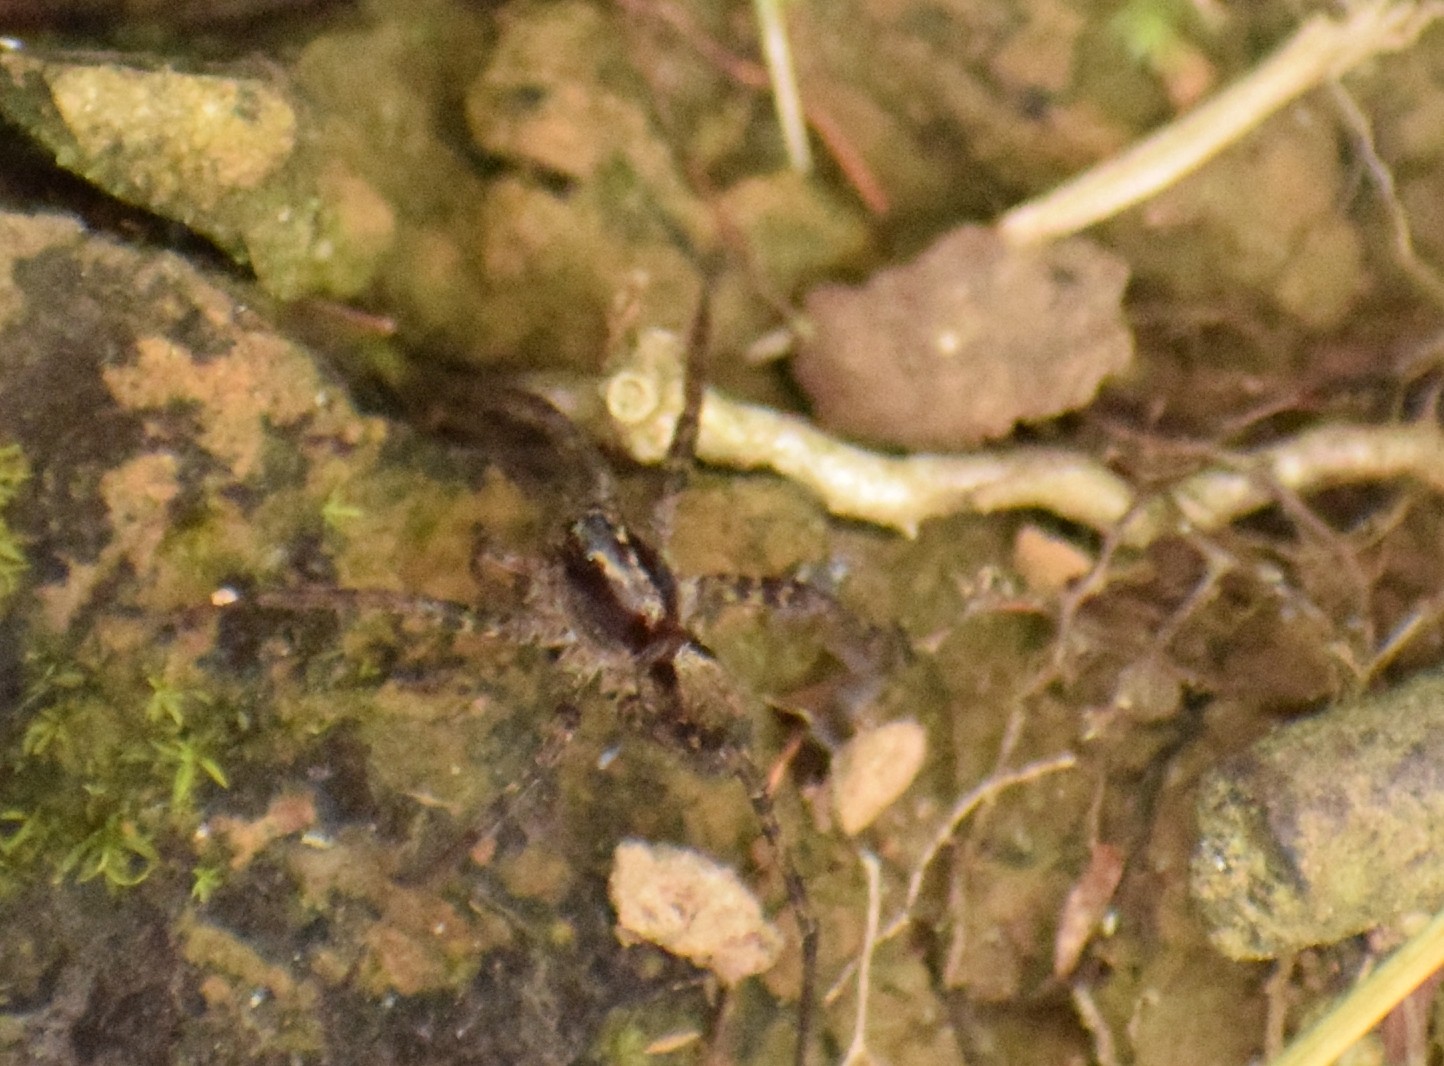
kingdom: Animalia
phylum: Arthropoda
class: Arachnida
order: Araneae
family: Lycosidae
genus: Pardosa
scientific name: Pardosa
